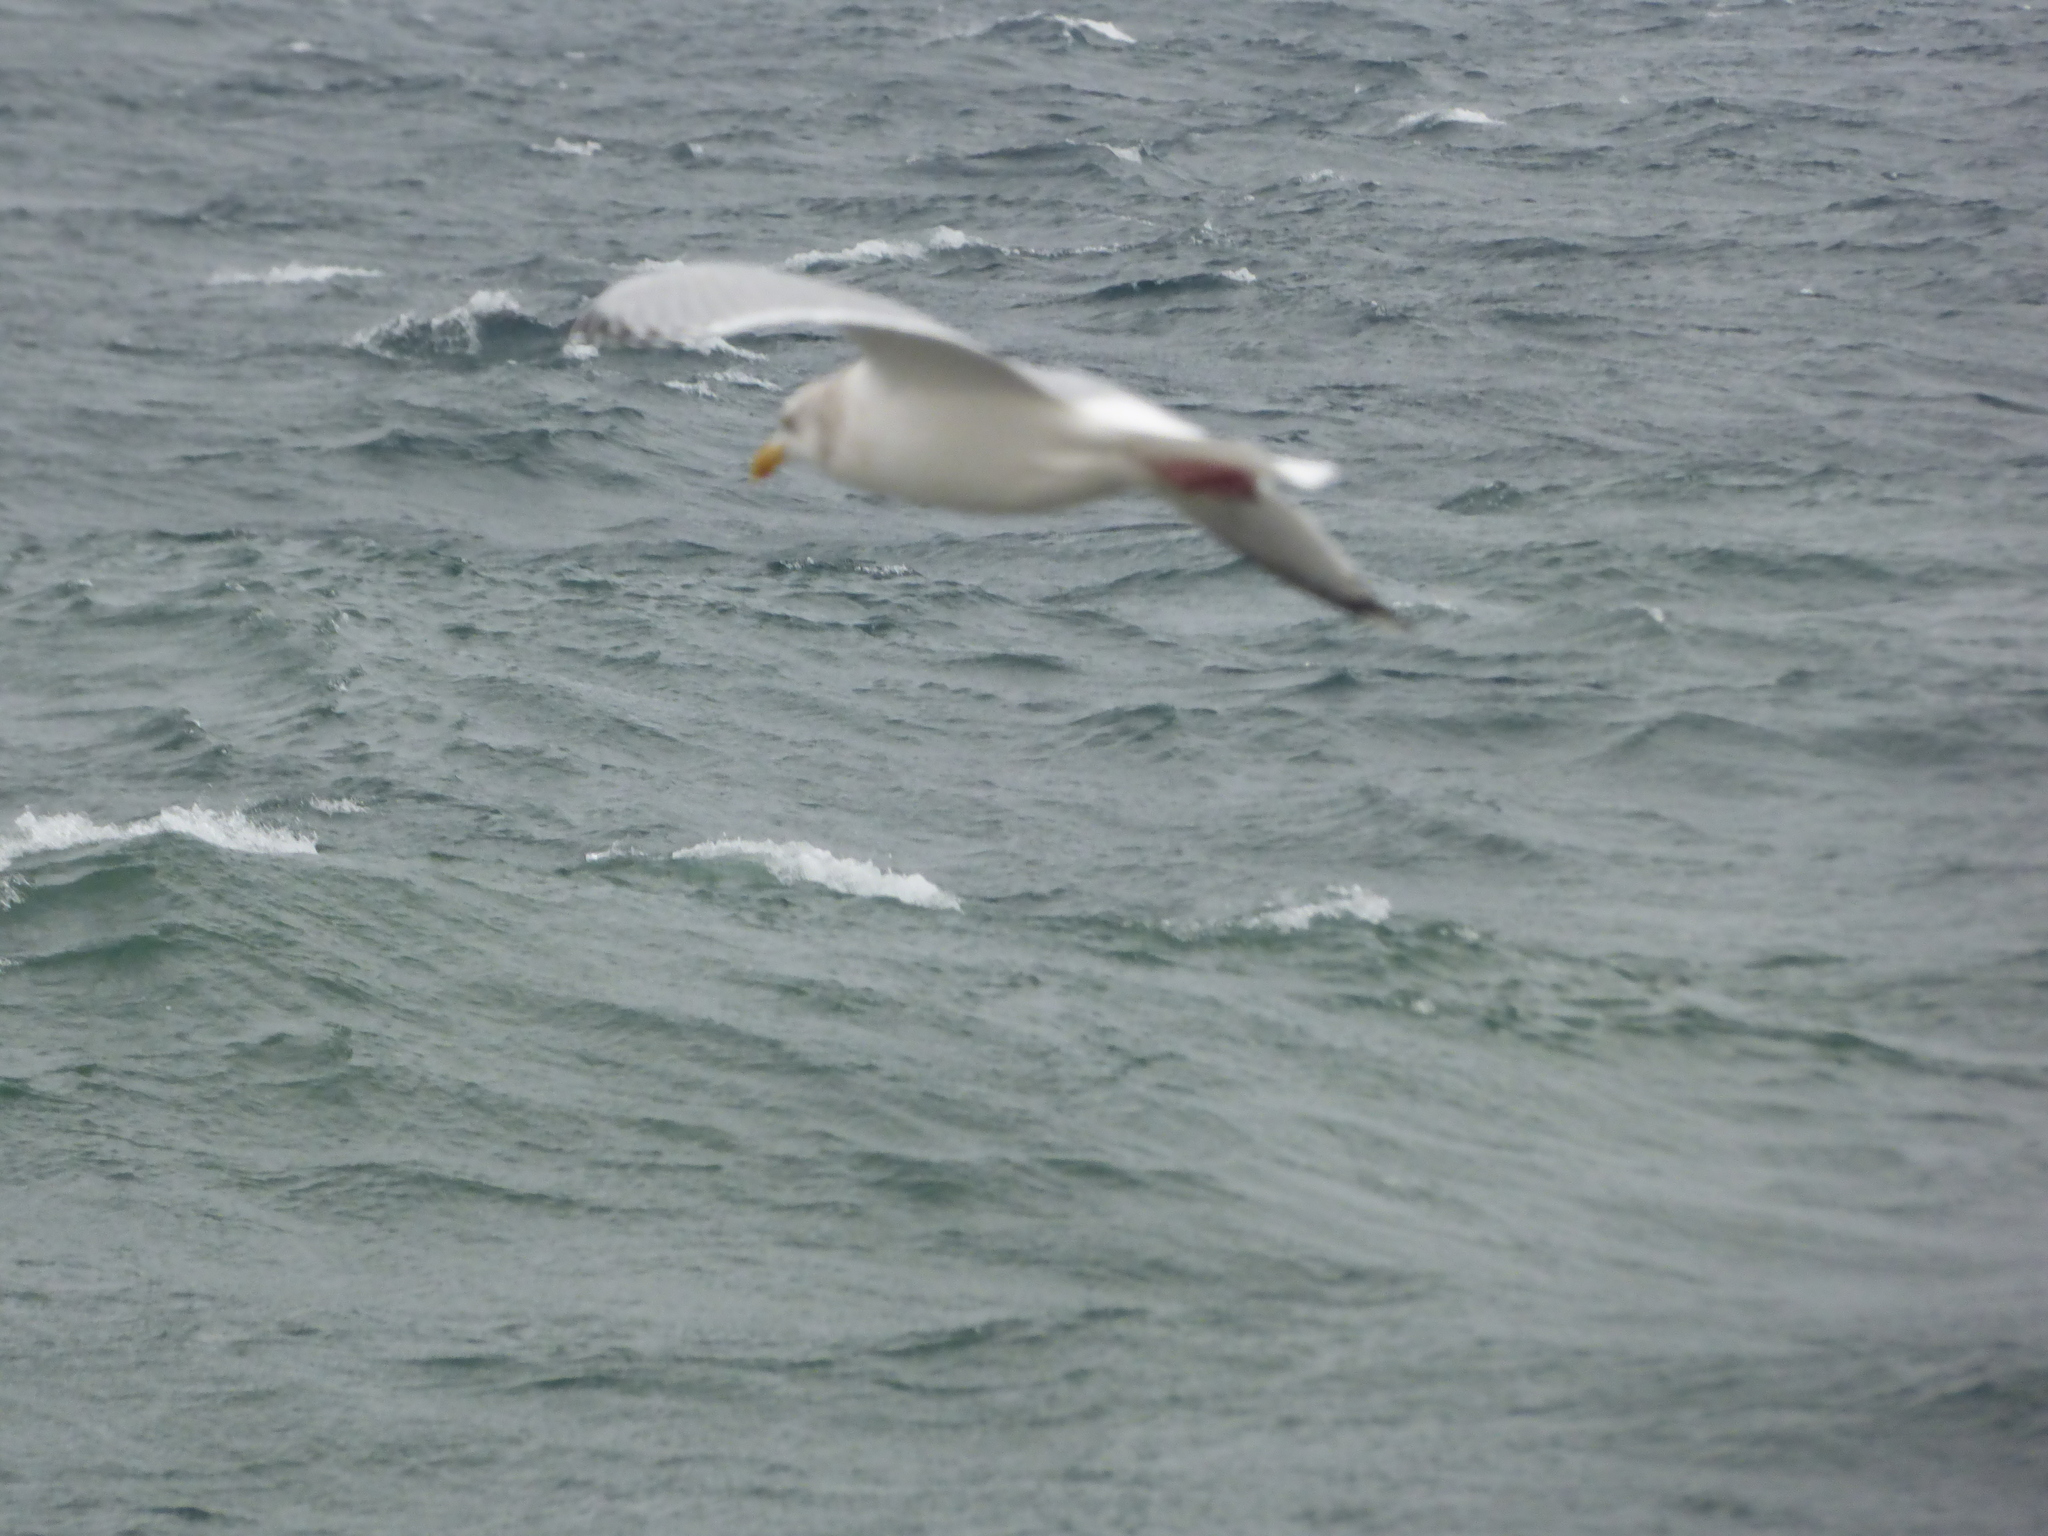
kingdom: Animalia
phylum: Chordata
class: Aves
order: Charadriiformes
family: Laridae
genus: Larus
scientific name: Larus argentatus
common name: Herring gull
